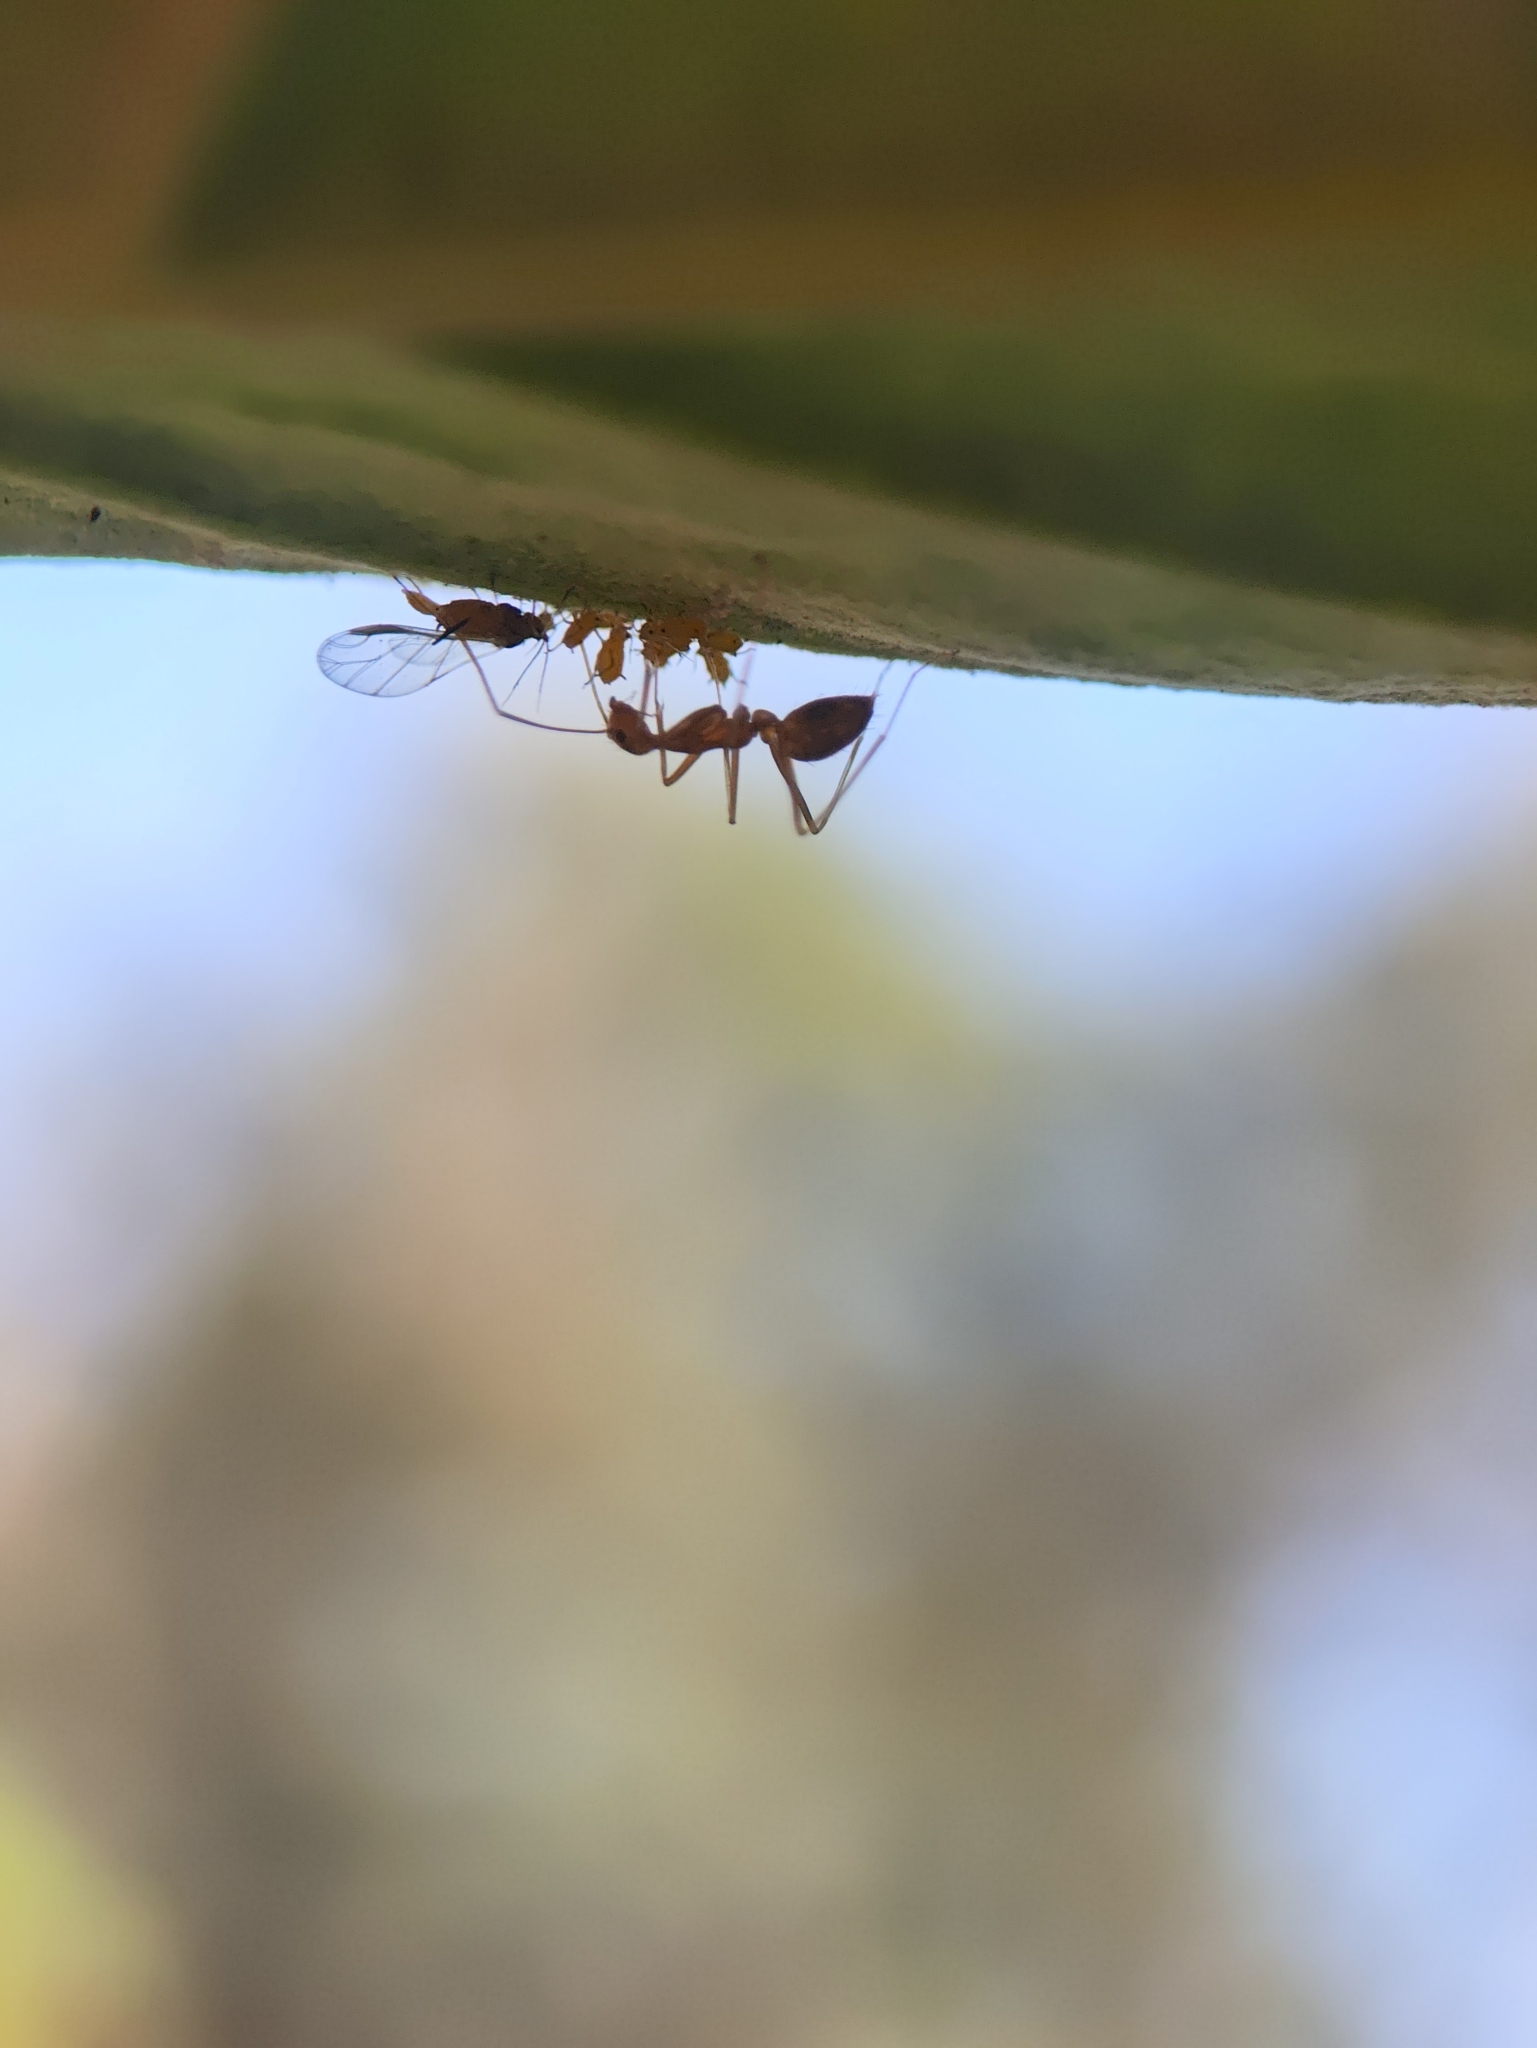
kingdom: Animalia
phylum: Arthropoda
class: Insecta
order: Hymenoptera
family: Formicidae
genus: Anoplolepis
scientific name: Anoplolepis gracilipes
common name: Ant
